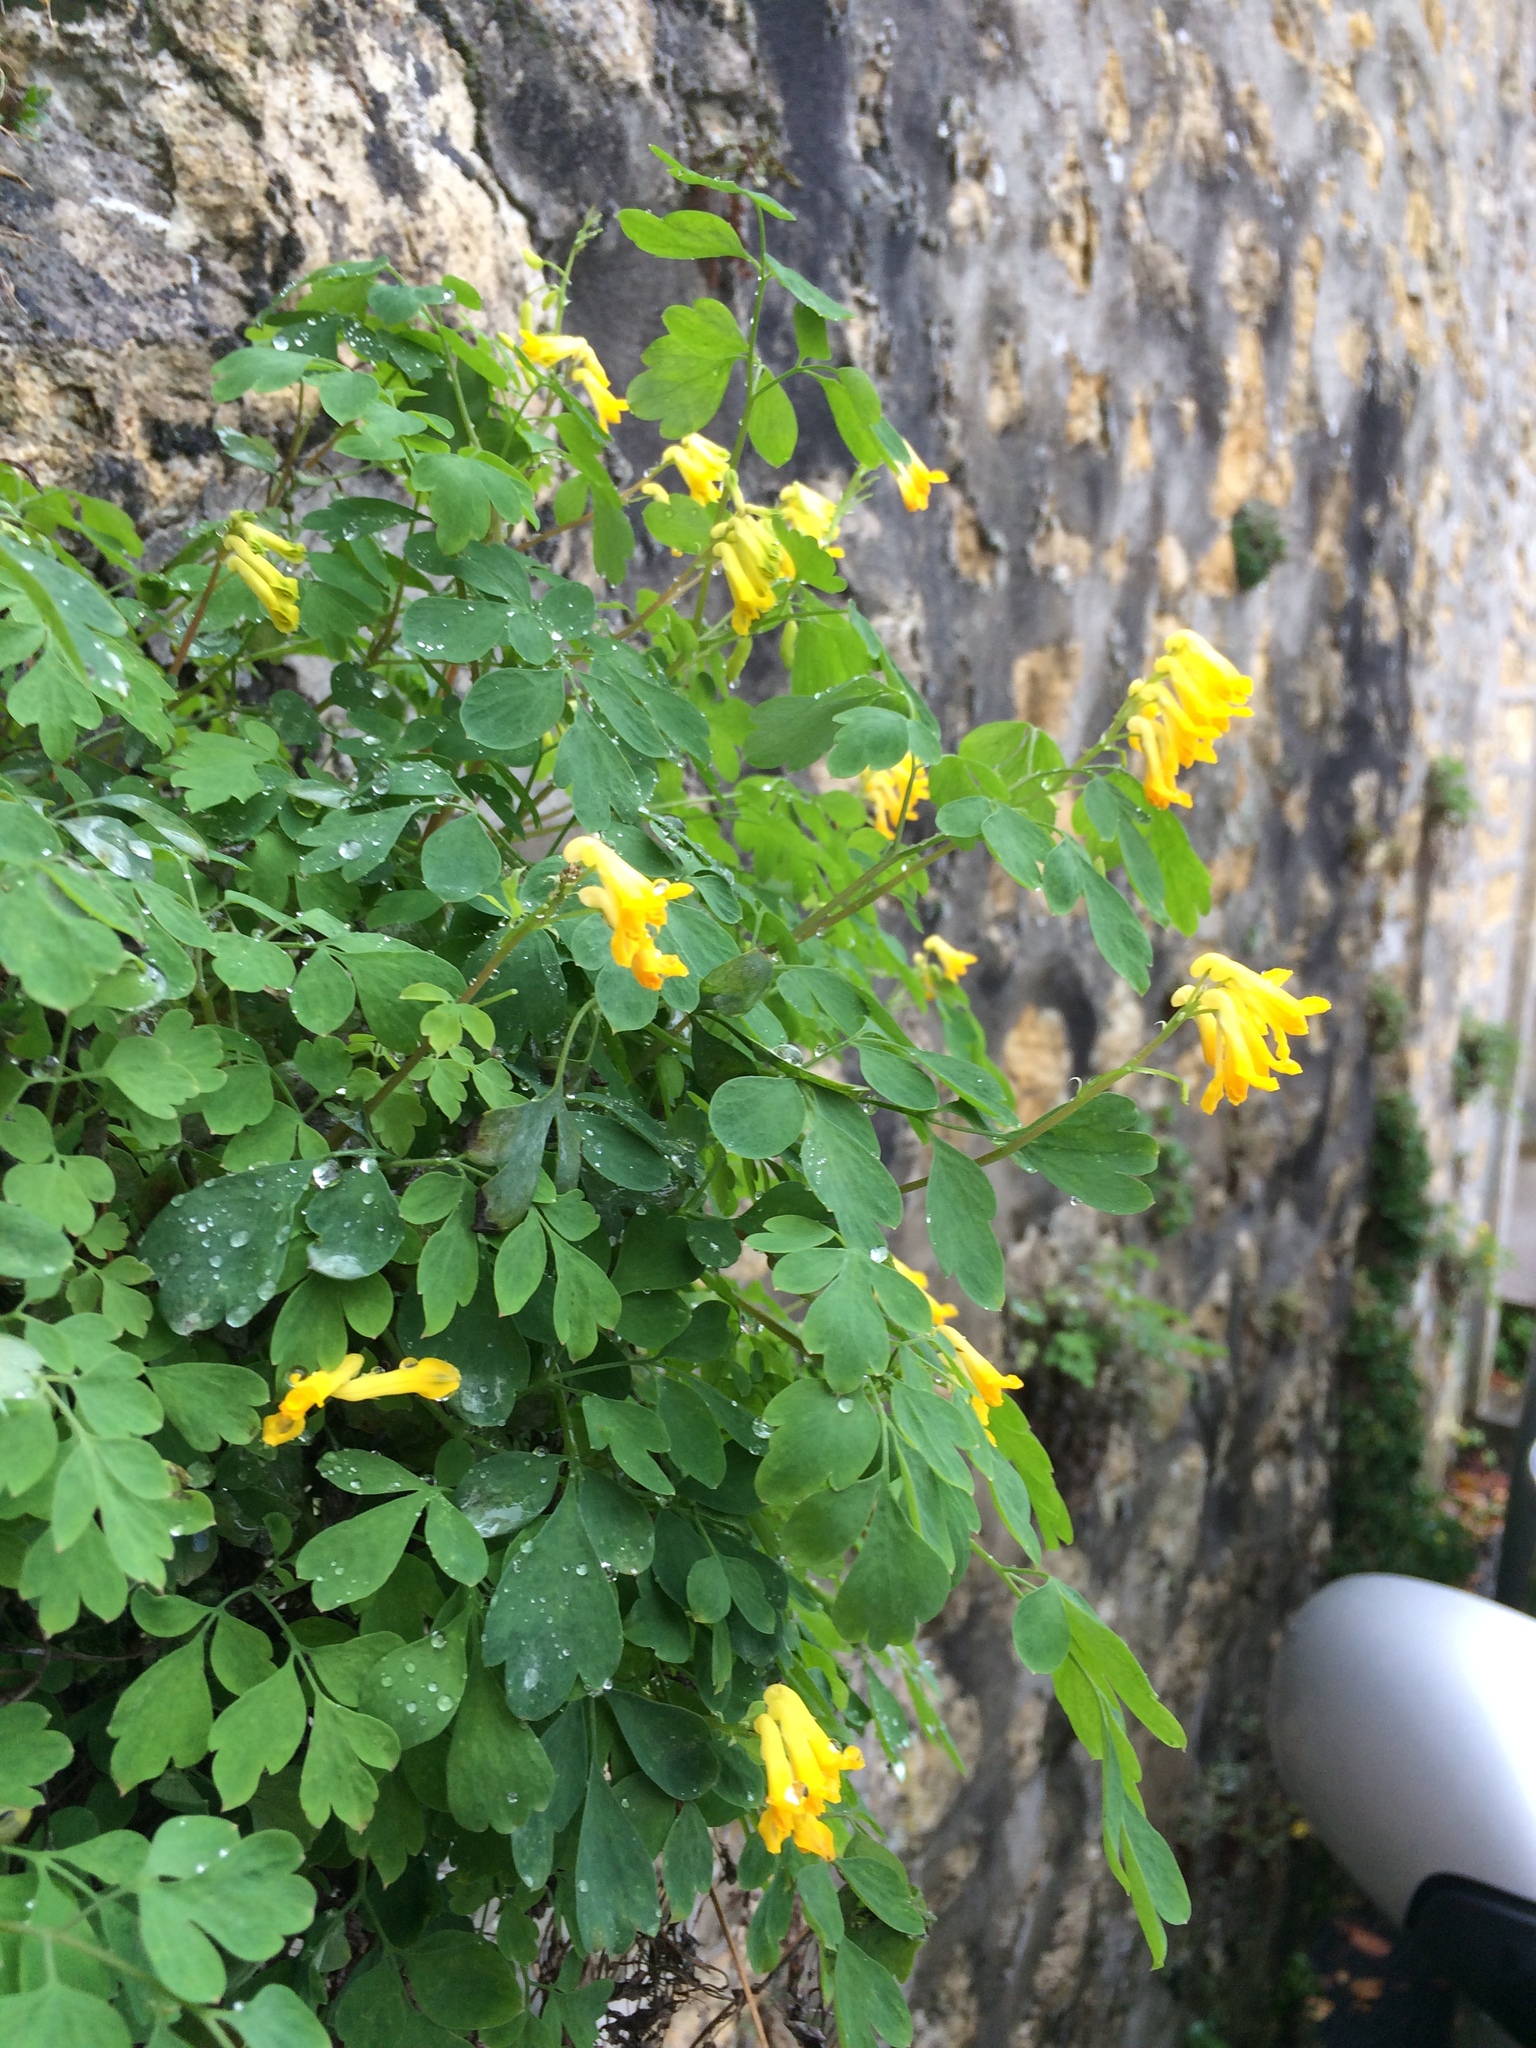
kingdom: Plantae
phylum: Tracheophyta
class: Magnoliopsida
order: Ranunculales
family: Papaveraceae
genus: Pseudofumaria
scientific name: Pseudofumaria lutea
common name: Yellow corydalis
